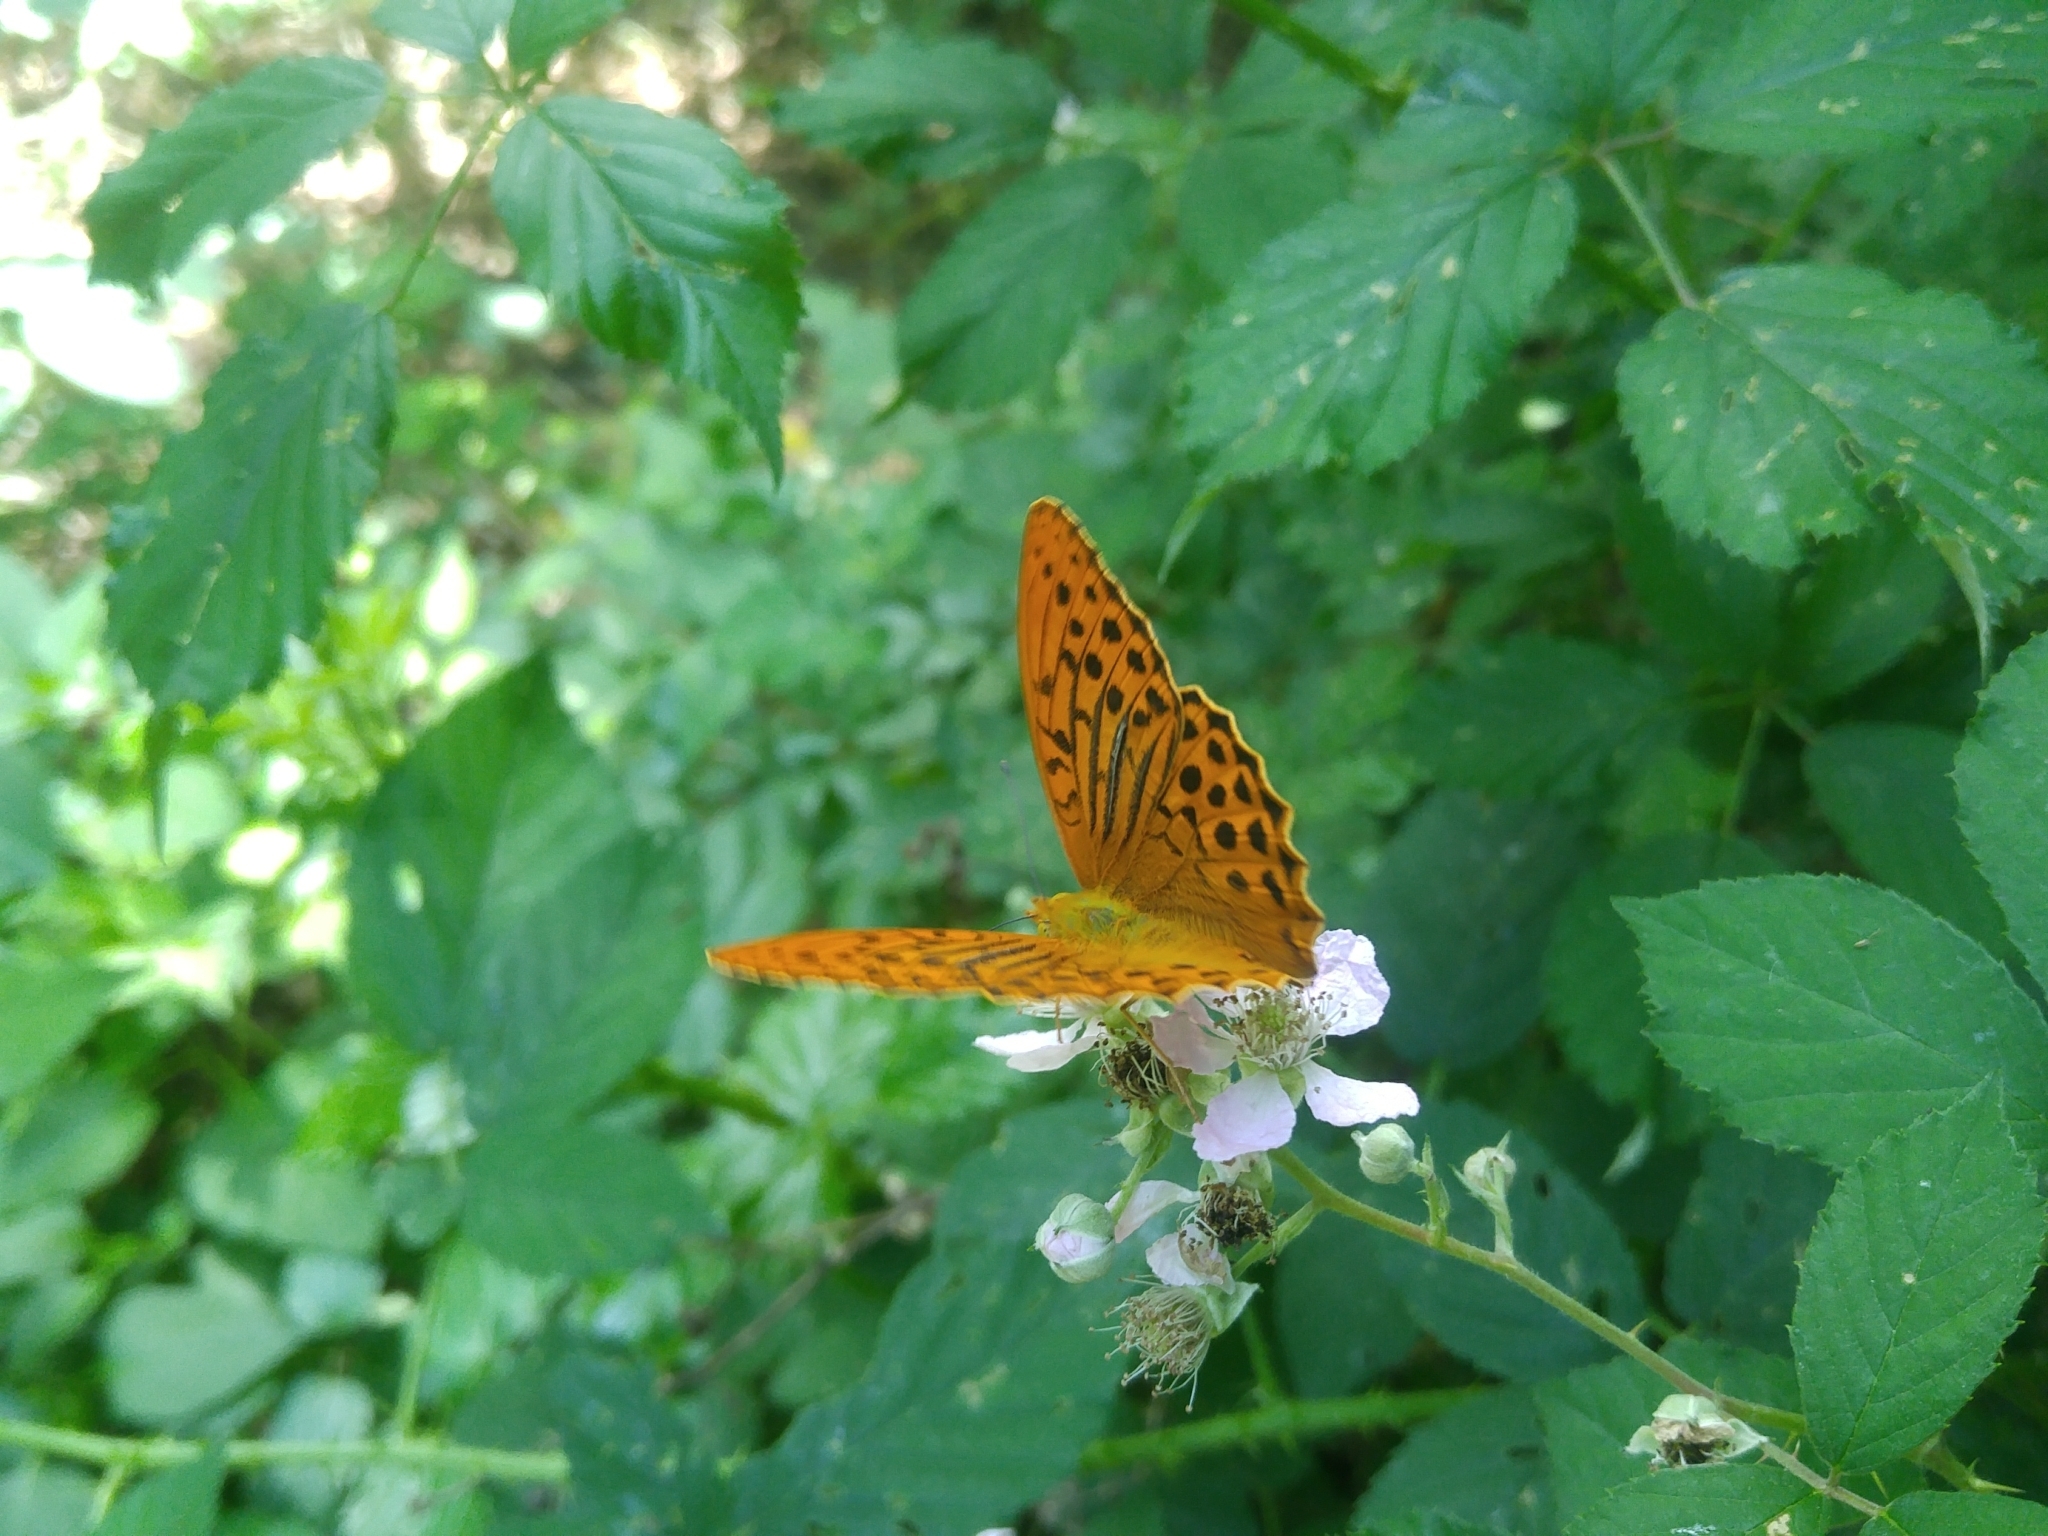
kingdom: Animalia
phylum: Arthropoda
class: Insecta
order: Lepidoptera
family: Nymphalidae
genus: Argynnis
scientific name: Argynnis paphia
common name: Silver-washed fritillary
